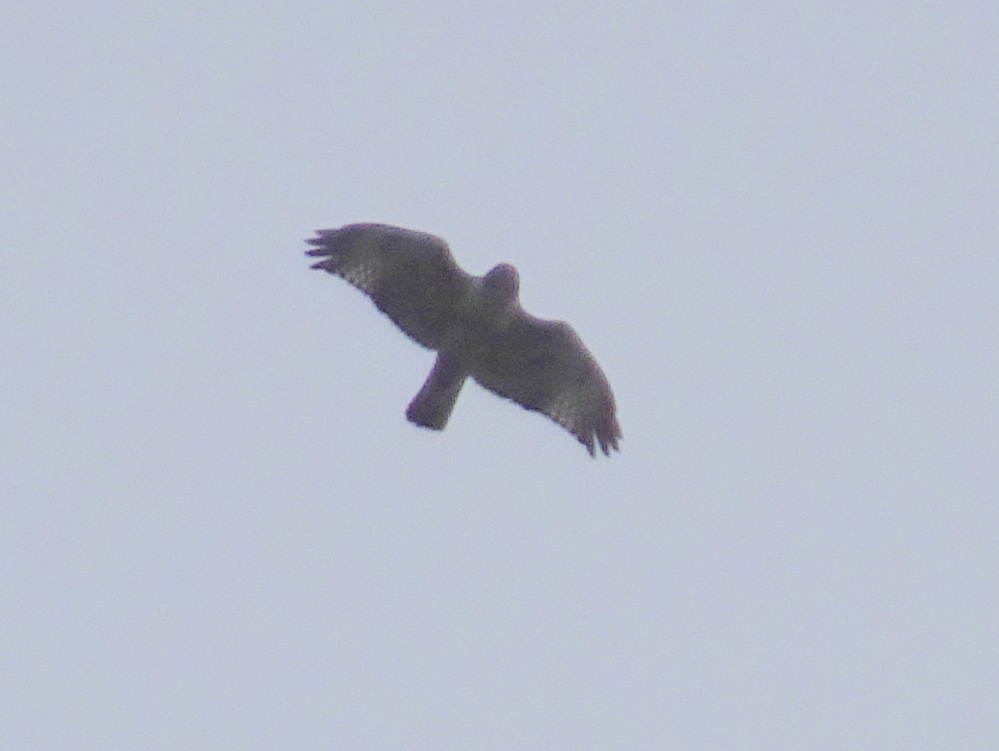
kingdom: Animalia
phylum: Chordata
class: Aves
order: Accipitriformes
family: Accipitridae
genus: Buteo
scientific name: Buteo jamaicensis
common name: Red-tailed hawk
